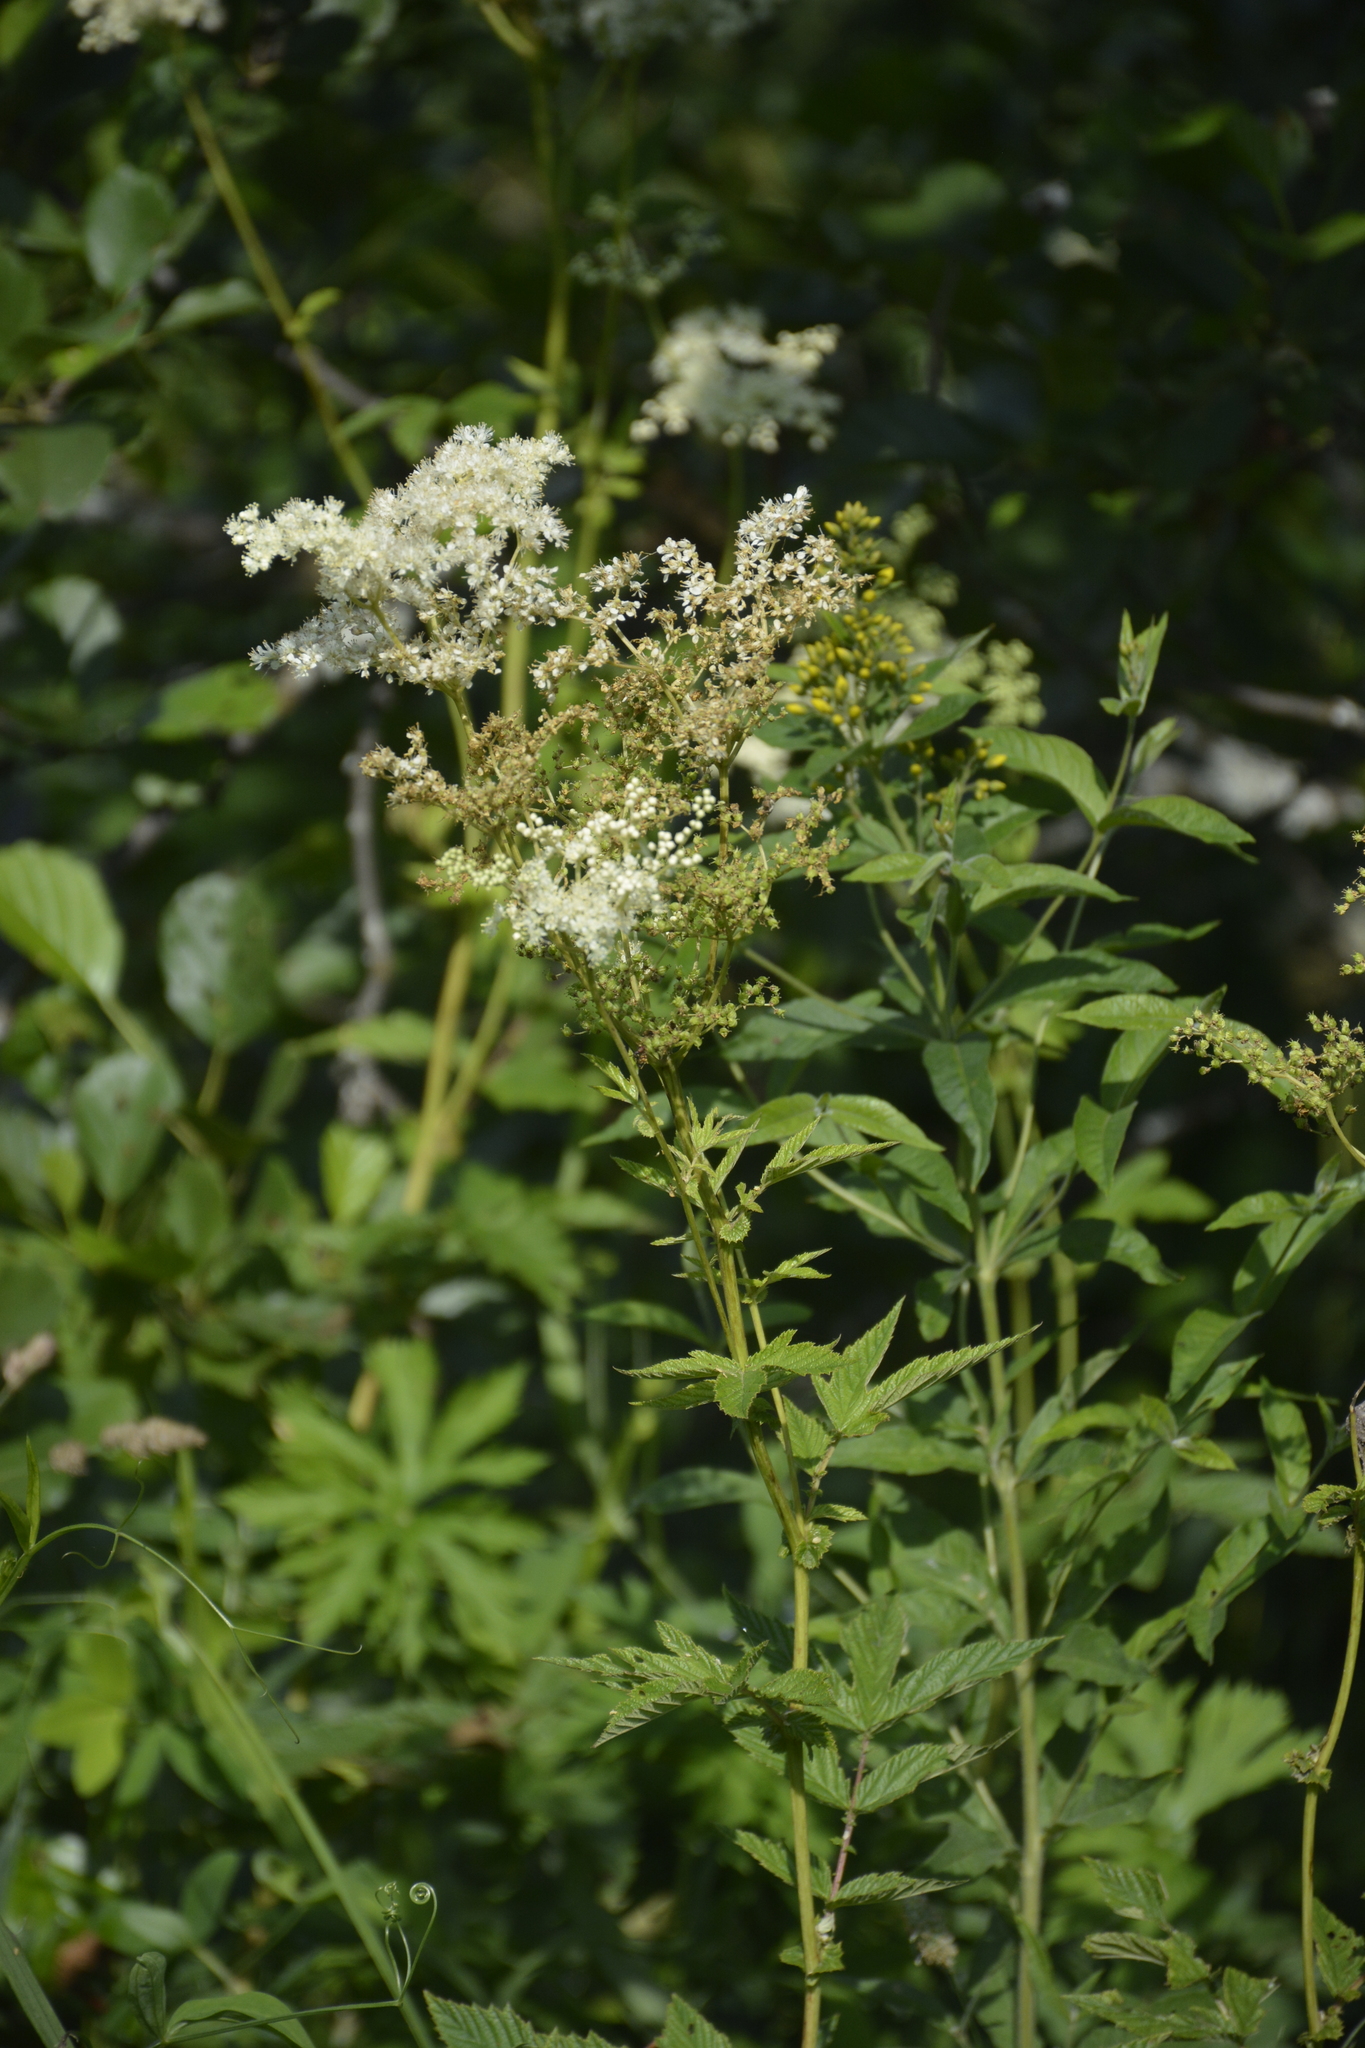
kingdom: Plantae
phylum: Tracheophyta
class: Magnoliopsida
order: Rosales
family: Rosaceae
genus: Filipendula
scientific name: Filipendula ulmaria
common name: Meadowsweet
